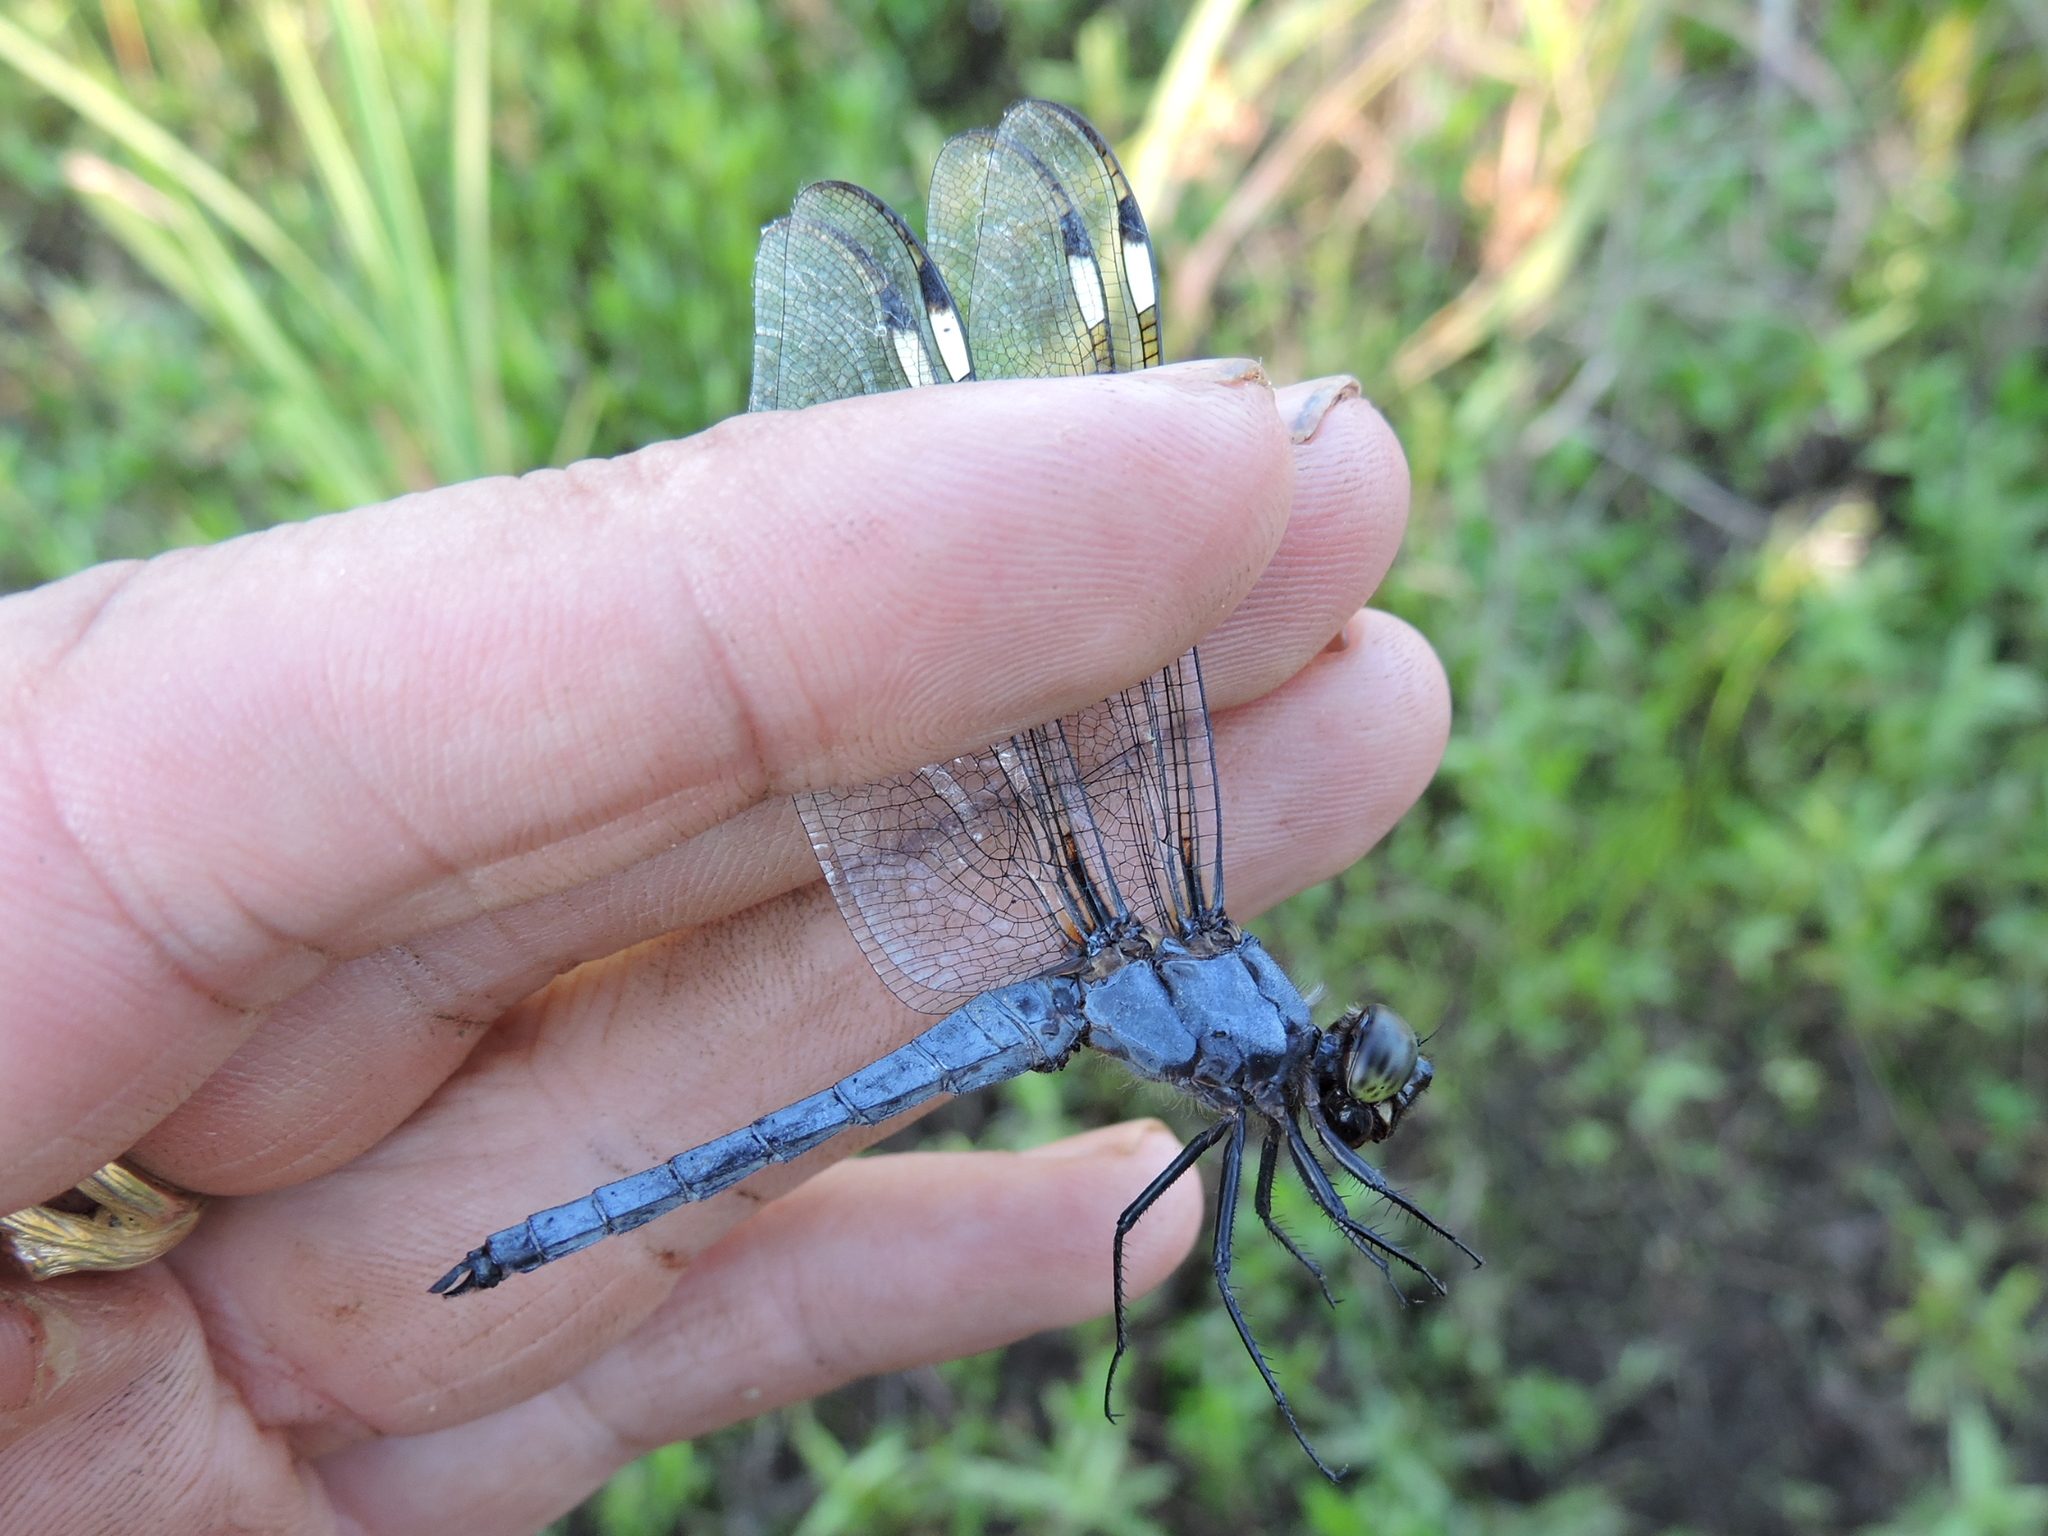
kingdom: Animalia
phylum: Arthropoda
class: Insecta
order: Odonata
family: Libellulidae
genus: Libellula
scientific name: Libellula cyanea
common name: Spangled skimmer
